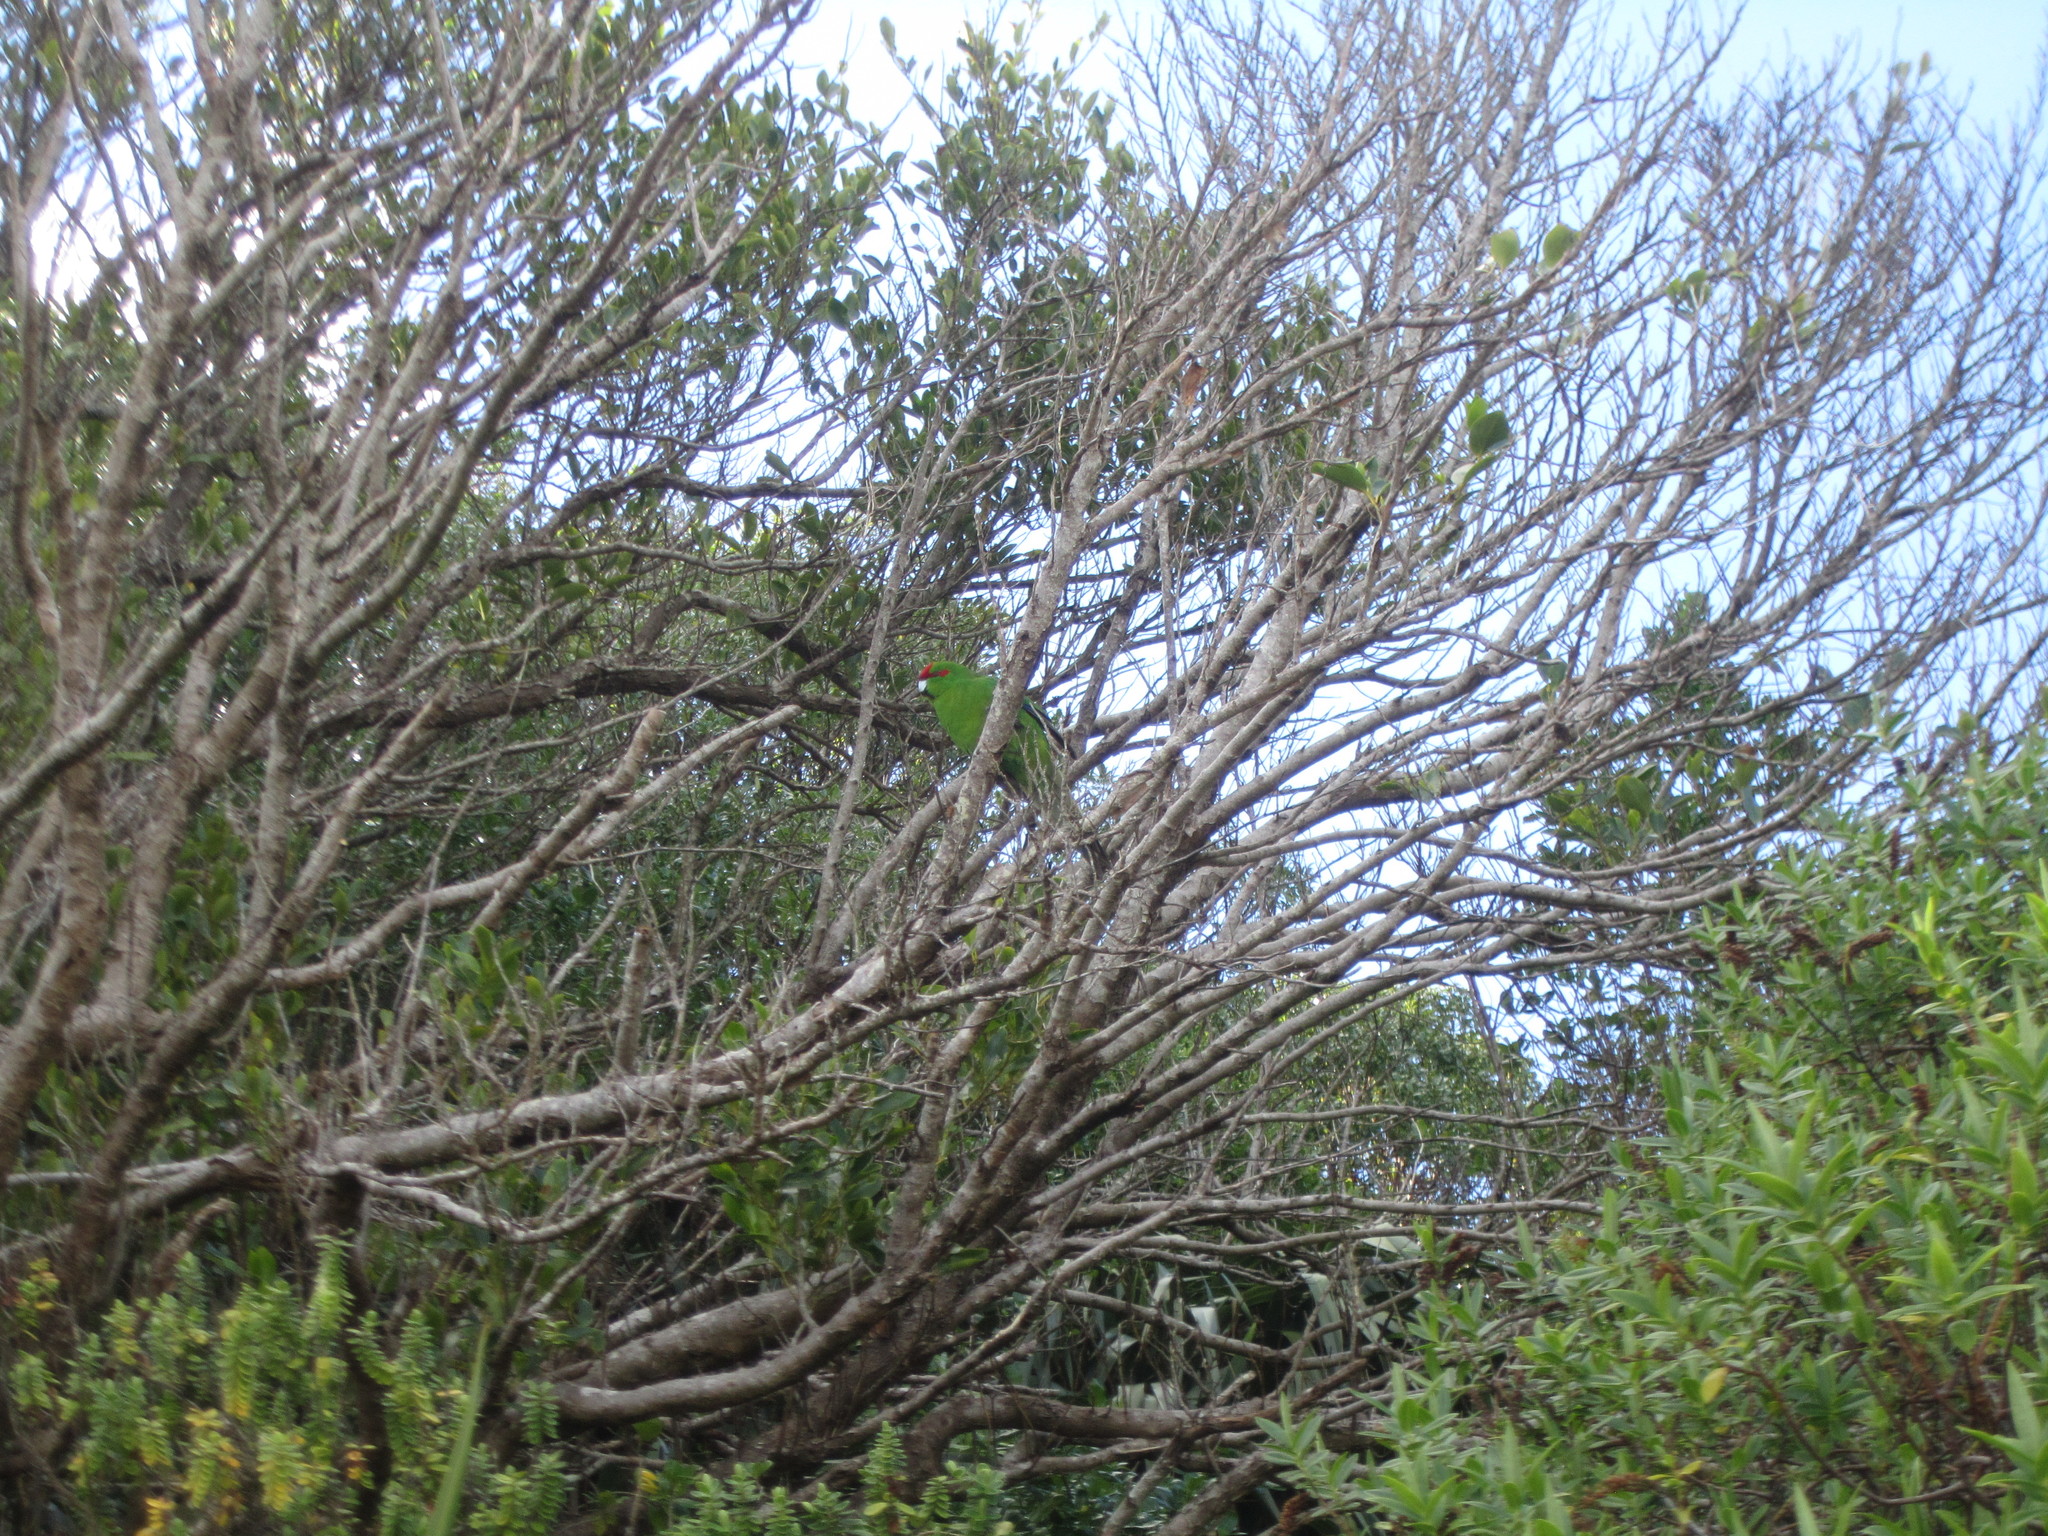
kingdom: Animalia
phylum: Chordata
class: Aves
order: Psittaciformes
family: Psittacidae
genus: Cyanoramphus
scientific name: Cyanoramphus novaezelandiae
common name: Red-fronted parakeet
